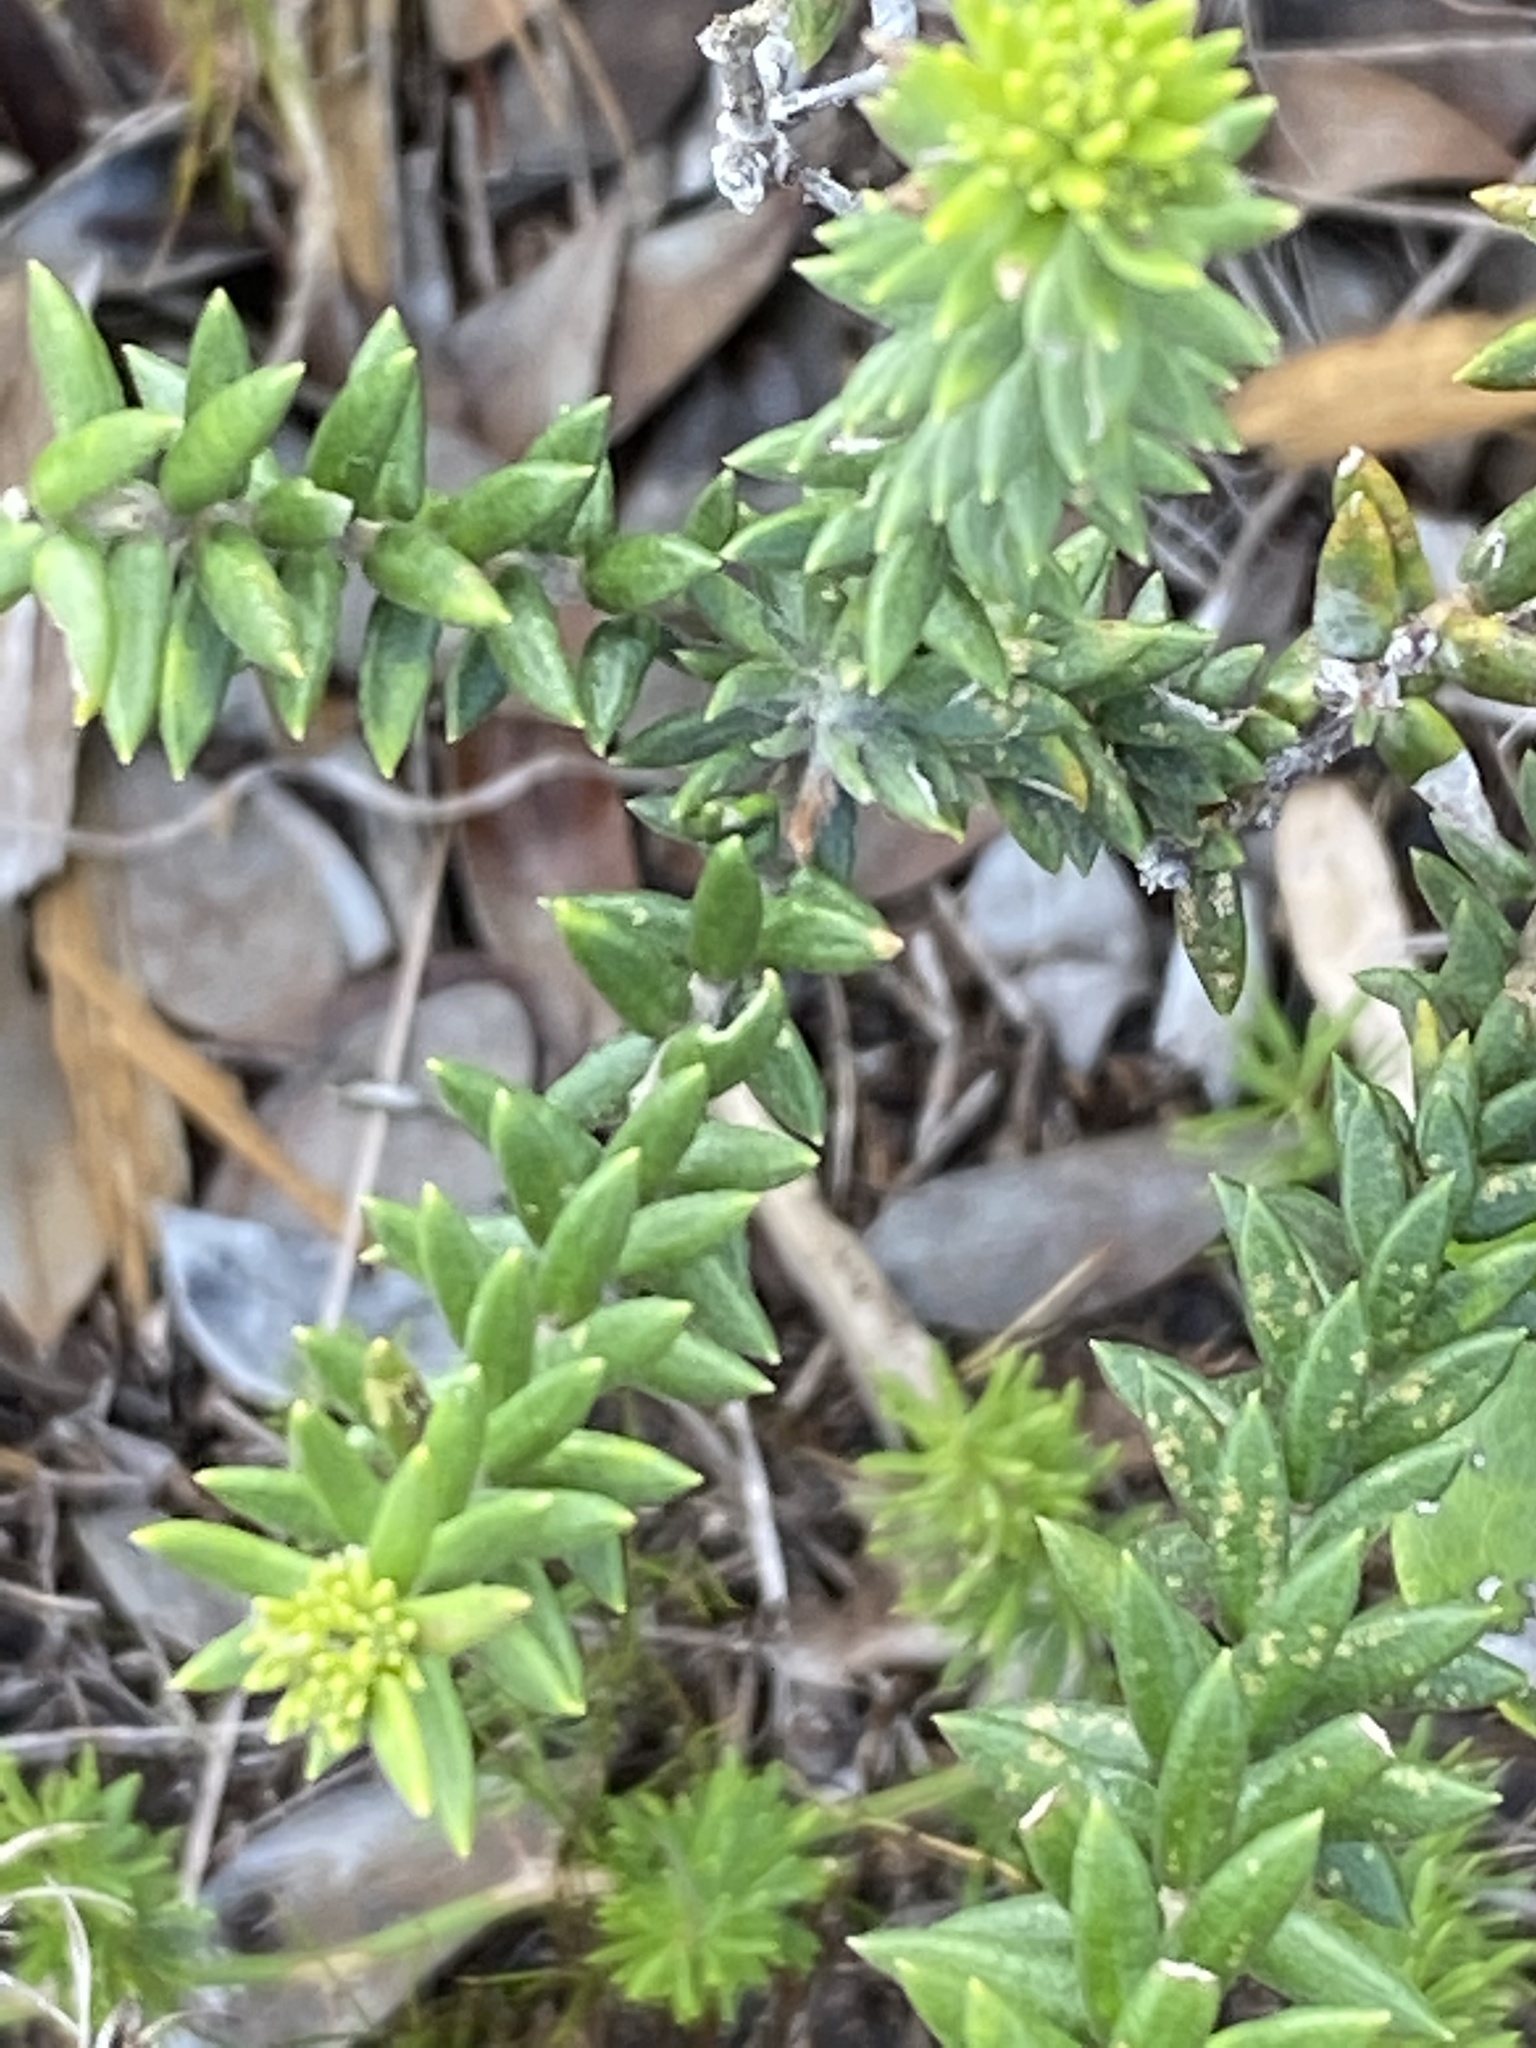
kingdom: Plantae
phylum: Tracheophyta
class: Magnoliopsida
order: Rosales
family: Rhamnaceae
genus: Phylica
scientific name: Phylica litoralis
